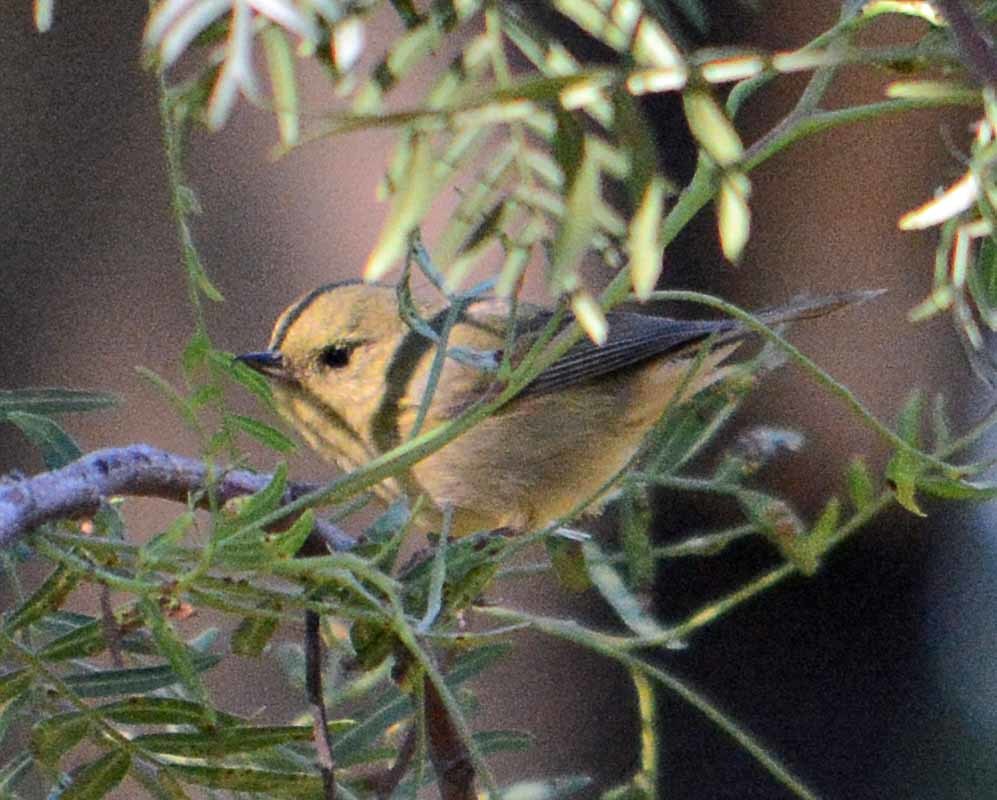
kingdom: Animalia
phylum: Chordata
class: Aves
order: Passeriformes
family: Thraupidae
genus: Diglossa
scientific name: Diglossa baritula
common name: Cinnamon-bellied flowerpiercer
